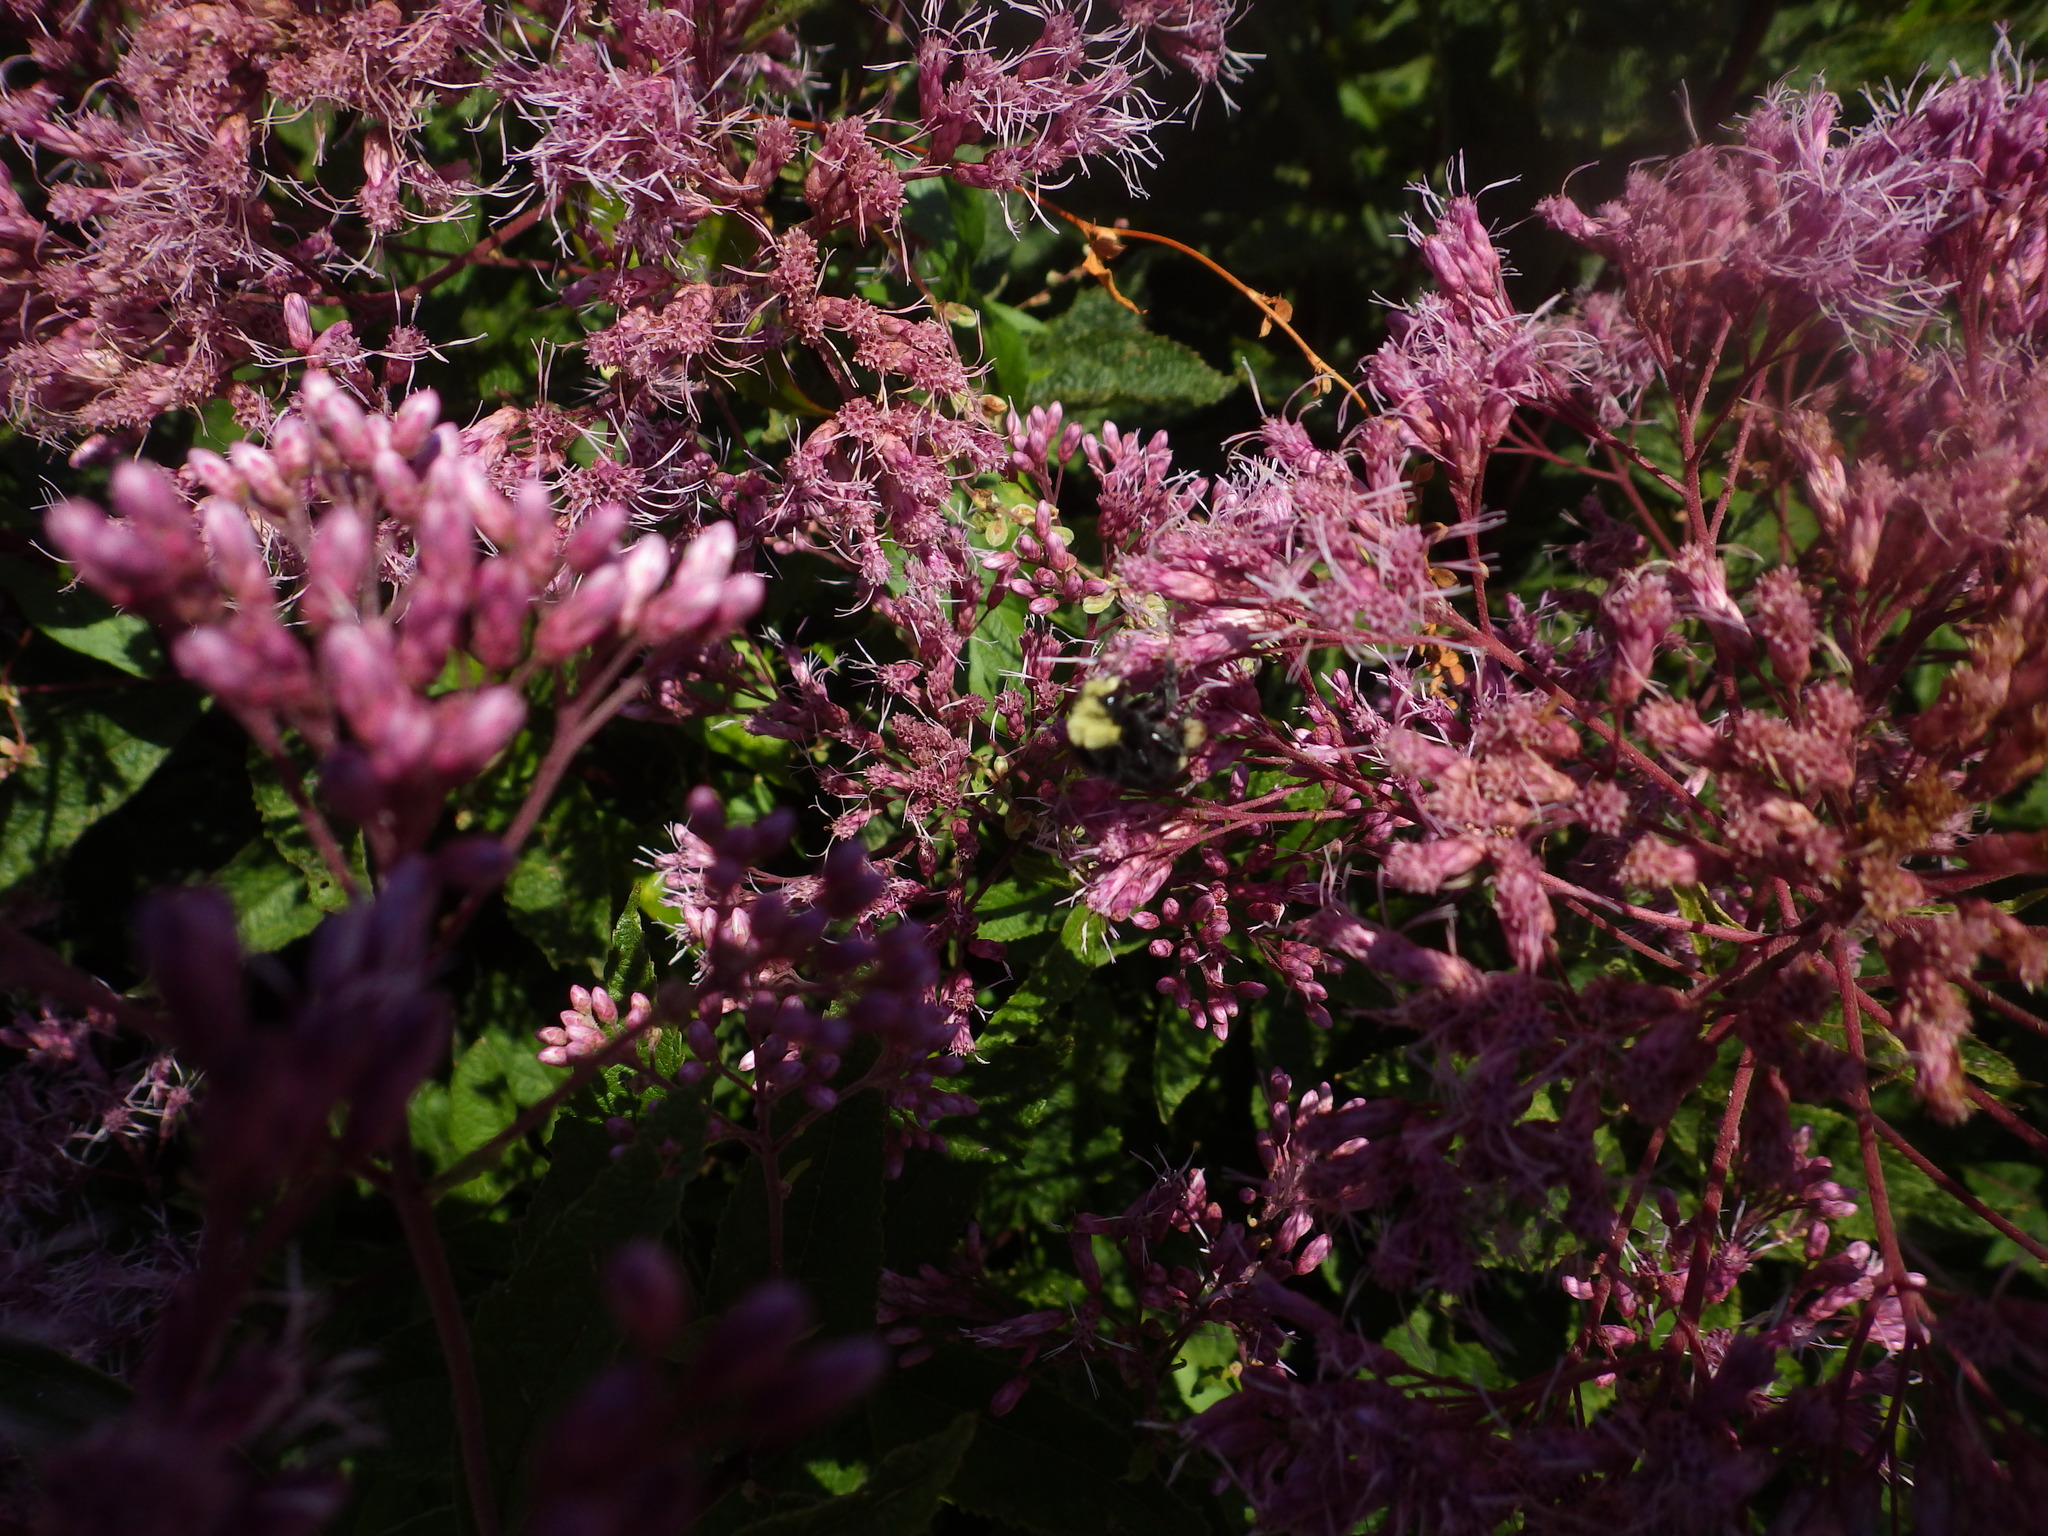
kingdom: Animalia
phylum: Arthropoda
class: Insecta
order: Hymenoptera
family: Apidae
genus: Bombus
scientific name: Bombus vosnesenskii
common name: Vosnesensky bumble bee
